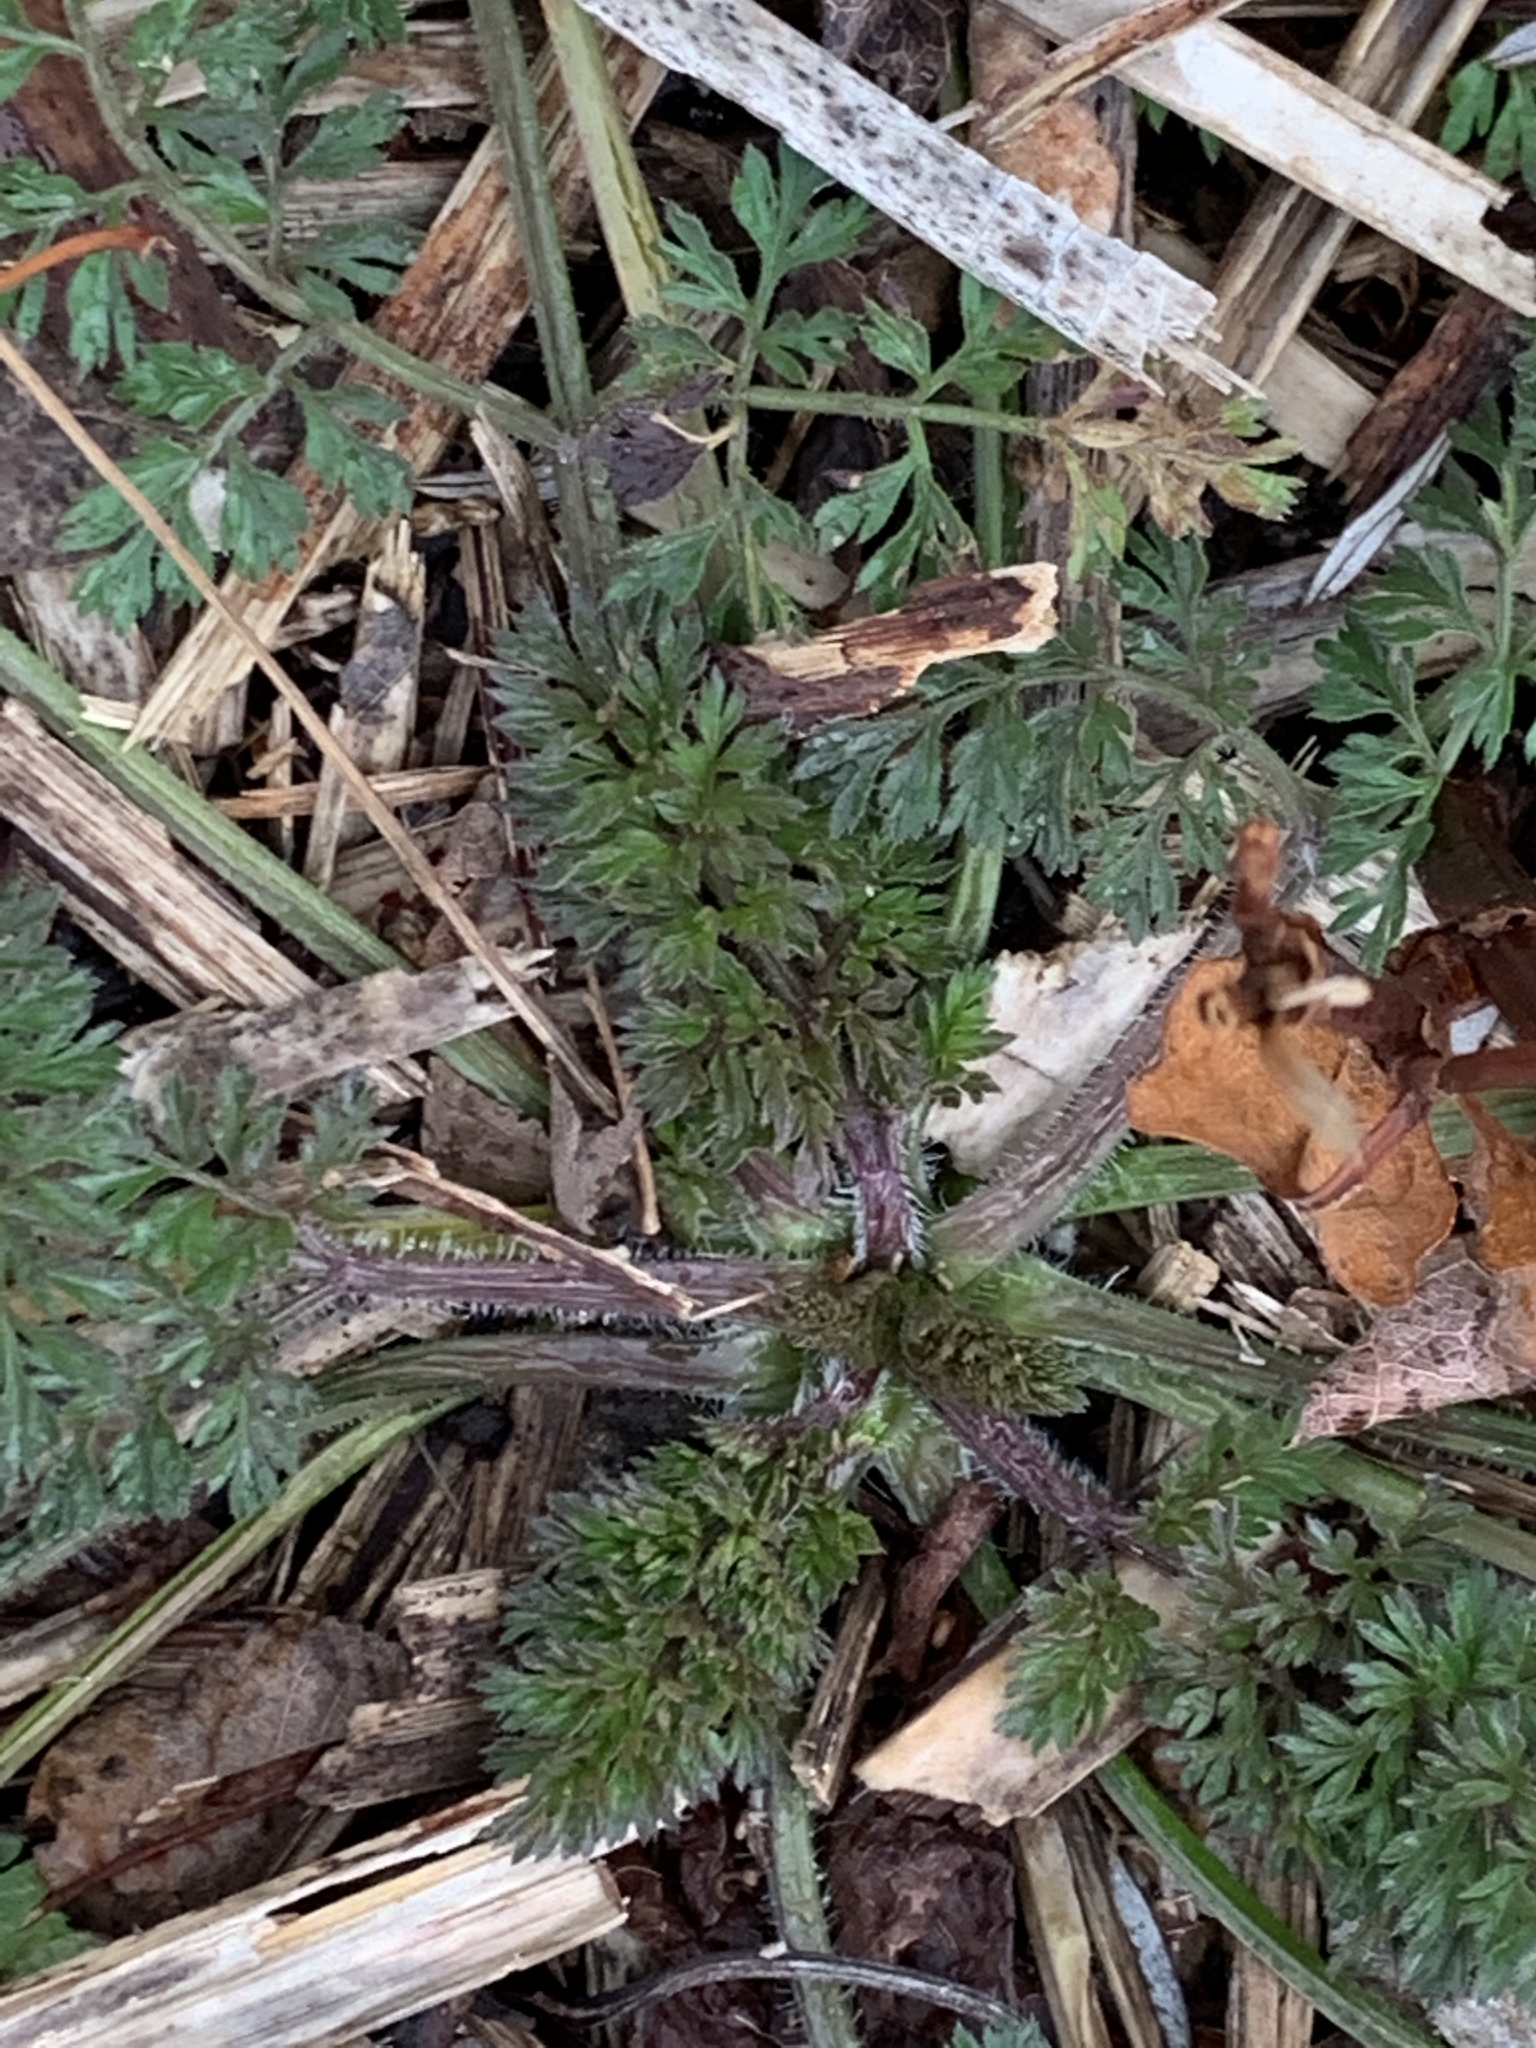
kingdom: Plantae
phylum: Tracheophyta
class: Magnoliopsida
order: Apiales
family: Apiaceae
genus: Daucus
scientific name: Daucus carota
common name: Wild carrot
